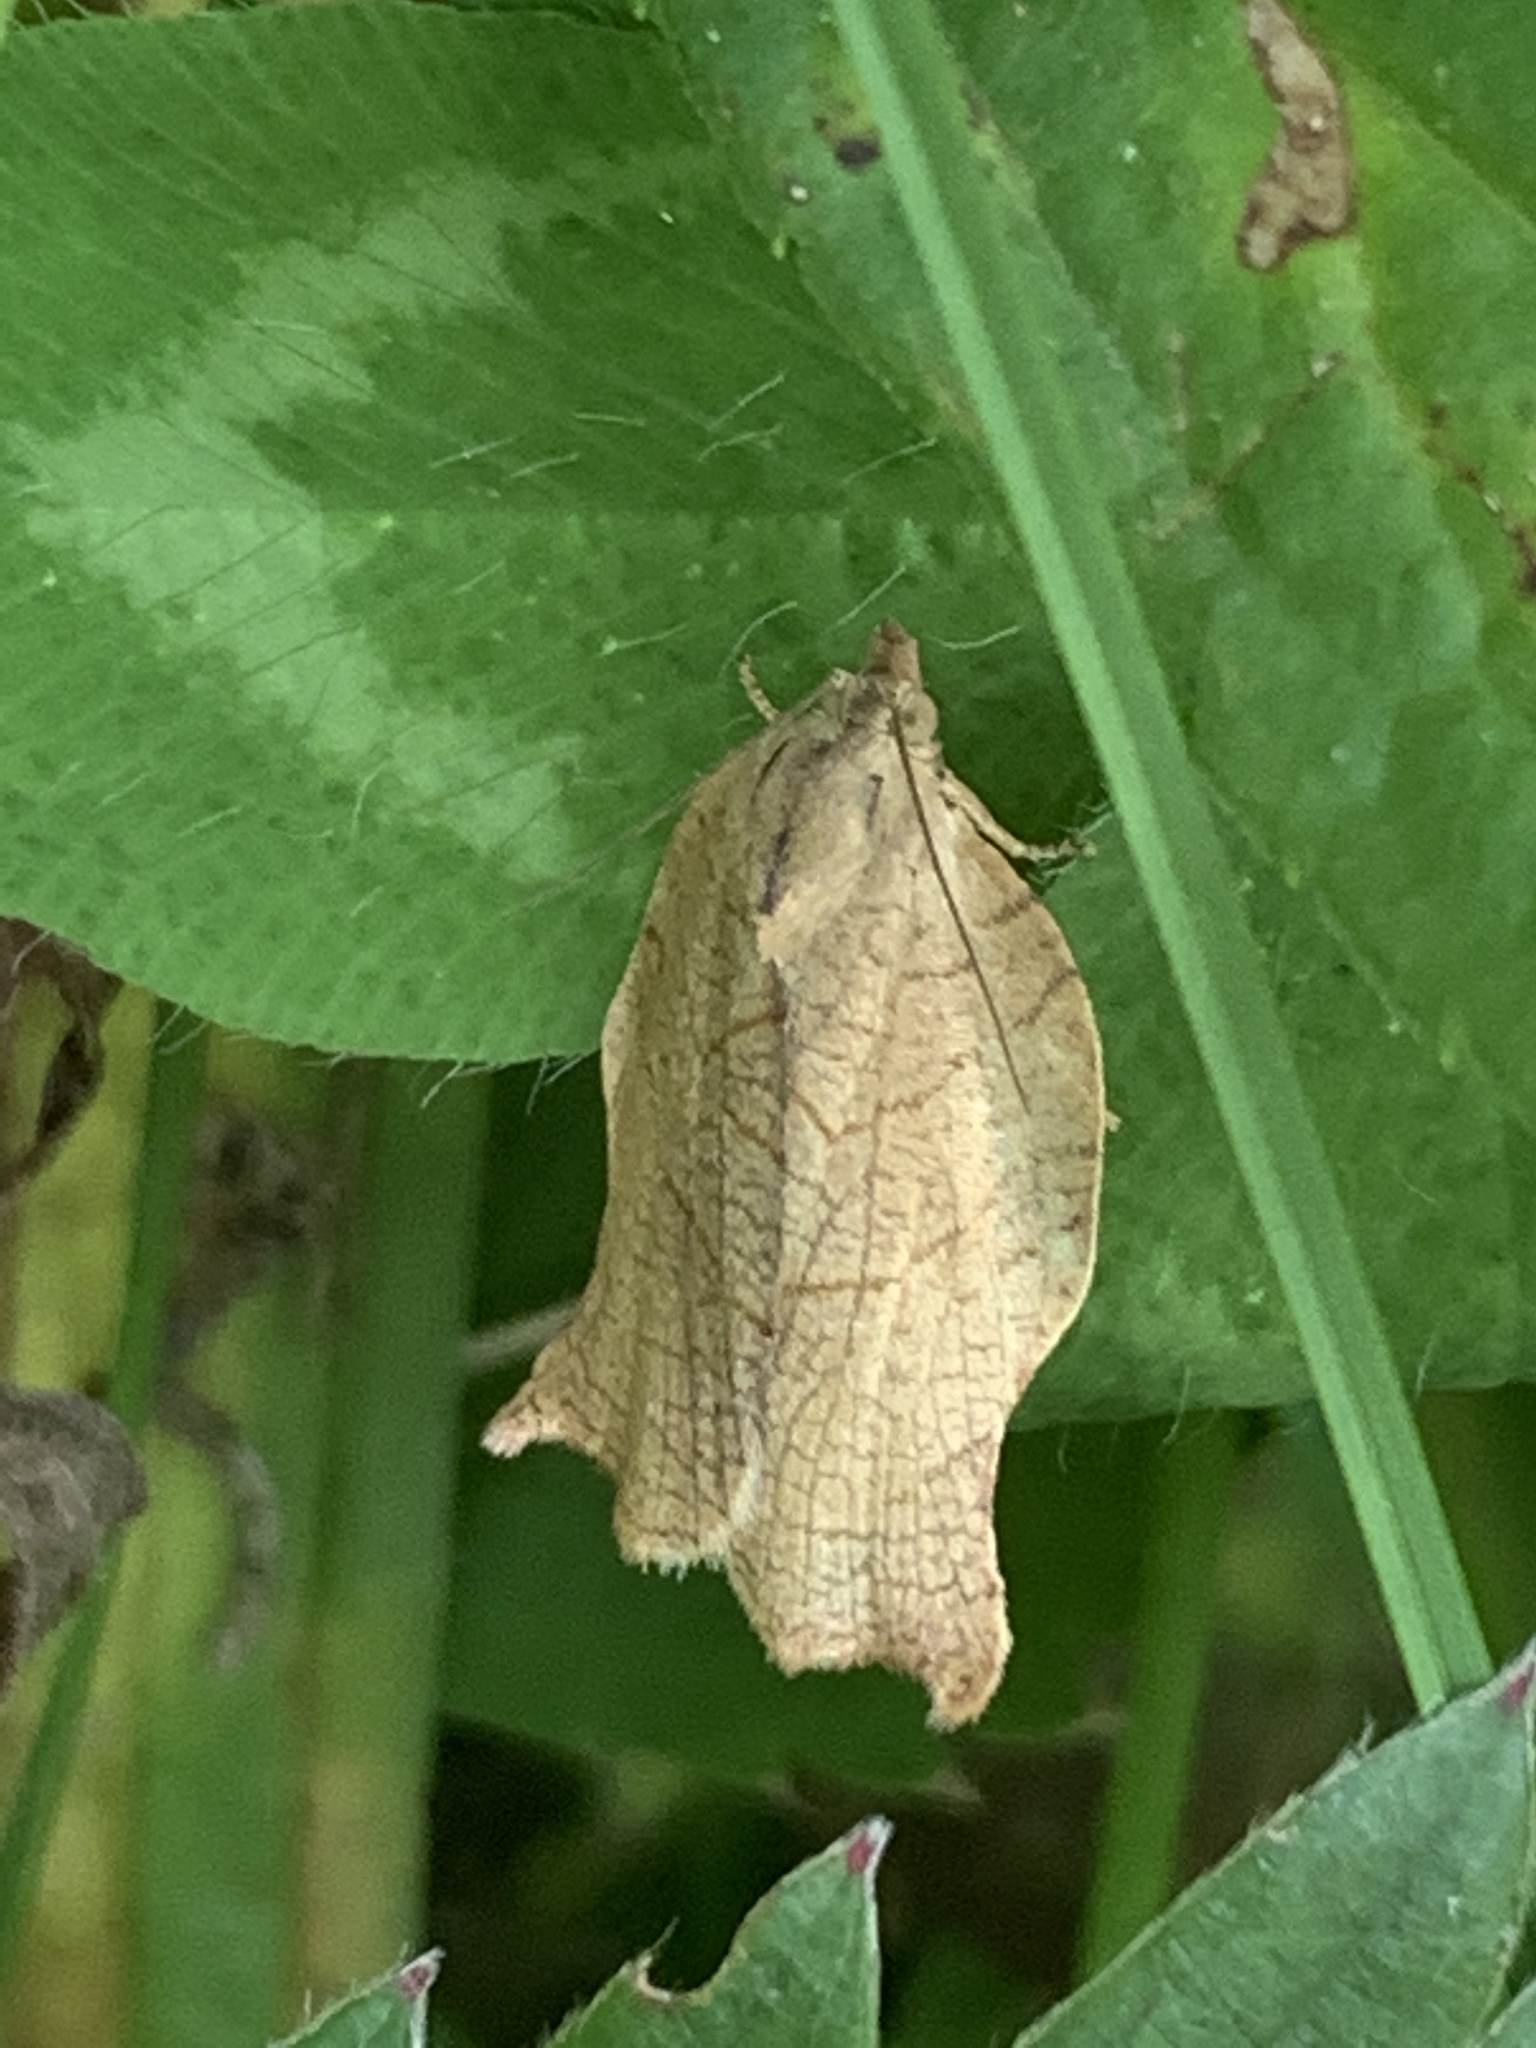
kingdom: Animalia
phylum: Arthropoda
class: Insecta
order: Lepidoptera
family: Tortricidae
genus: Archips
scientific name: Archips purpurana
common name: Omnivorous leafroller
